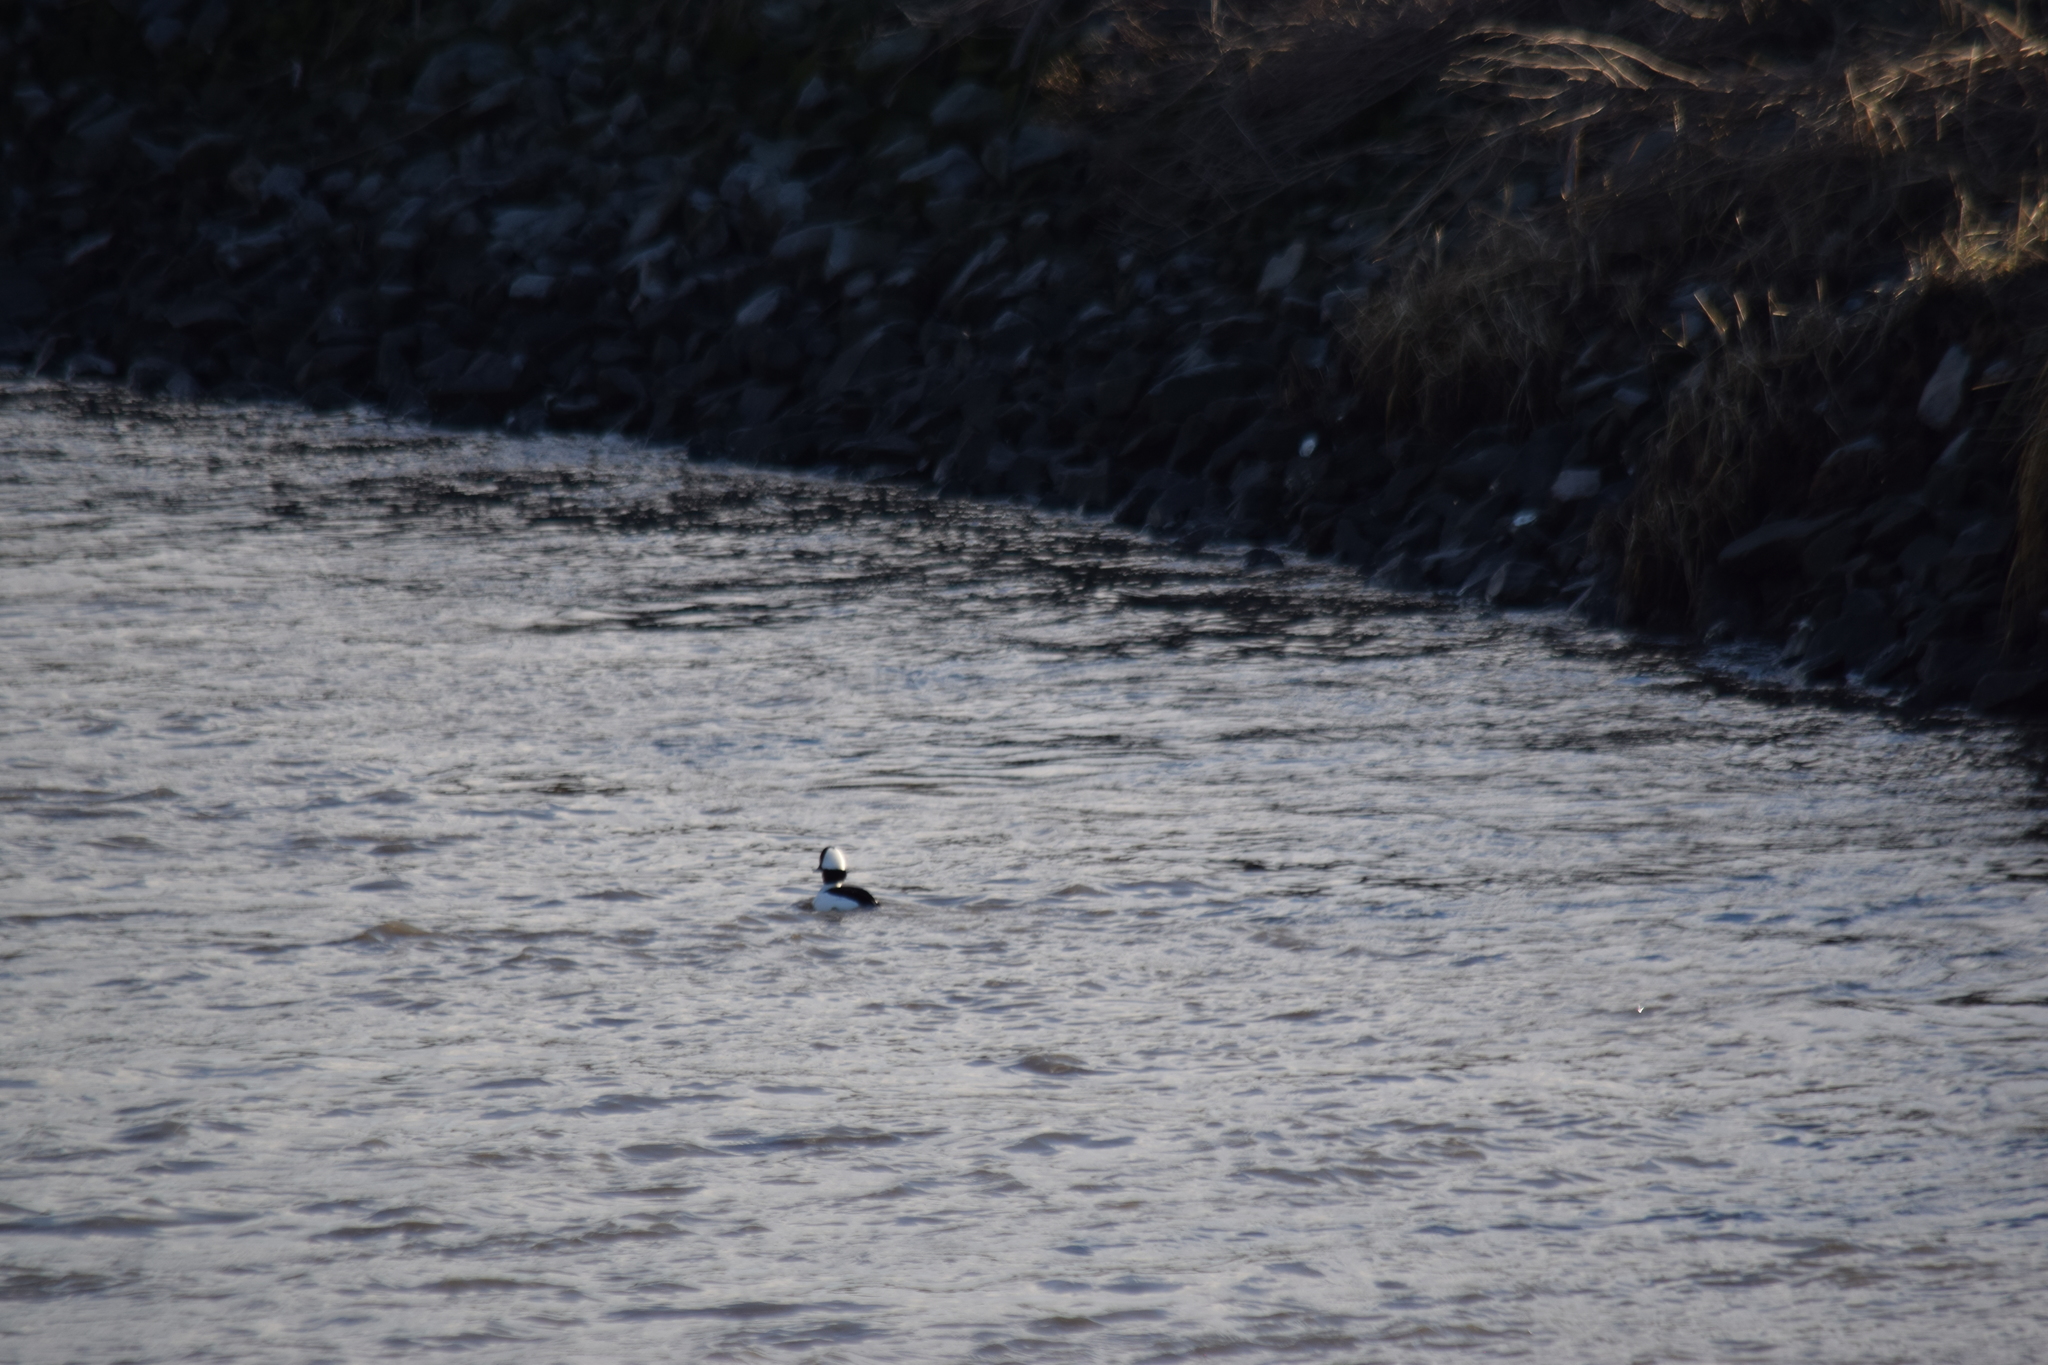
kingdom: Animalia
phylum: Chordata
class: Aves
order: Anseriformes
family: Anatidae
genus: Bucephala
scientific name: Bucephala albeola
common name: Bufflehead
